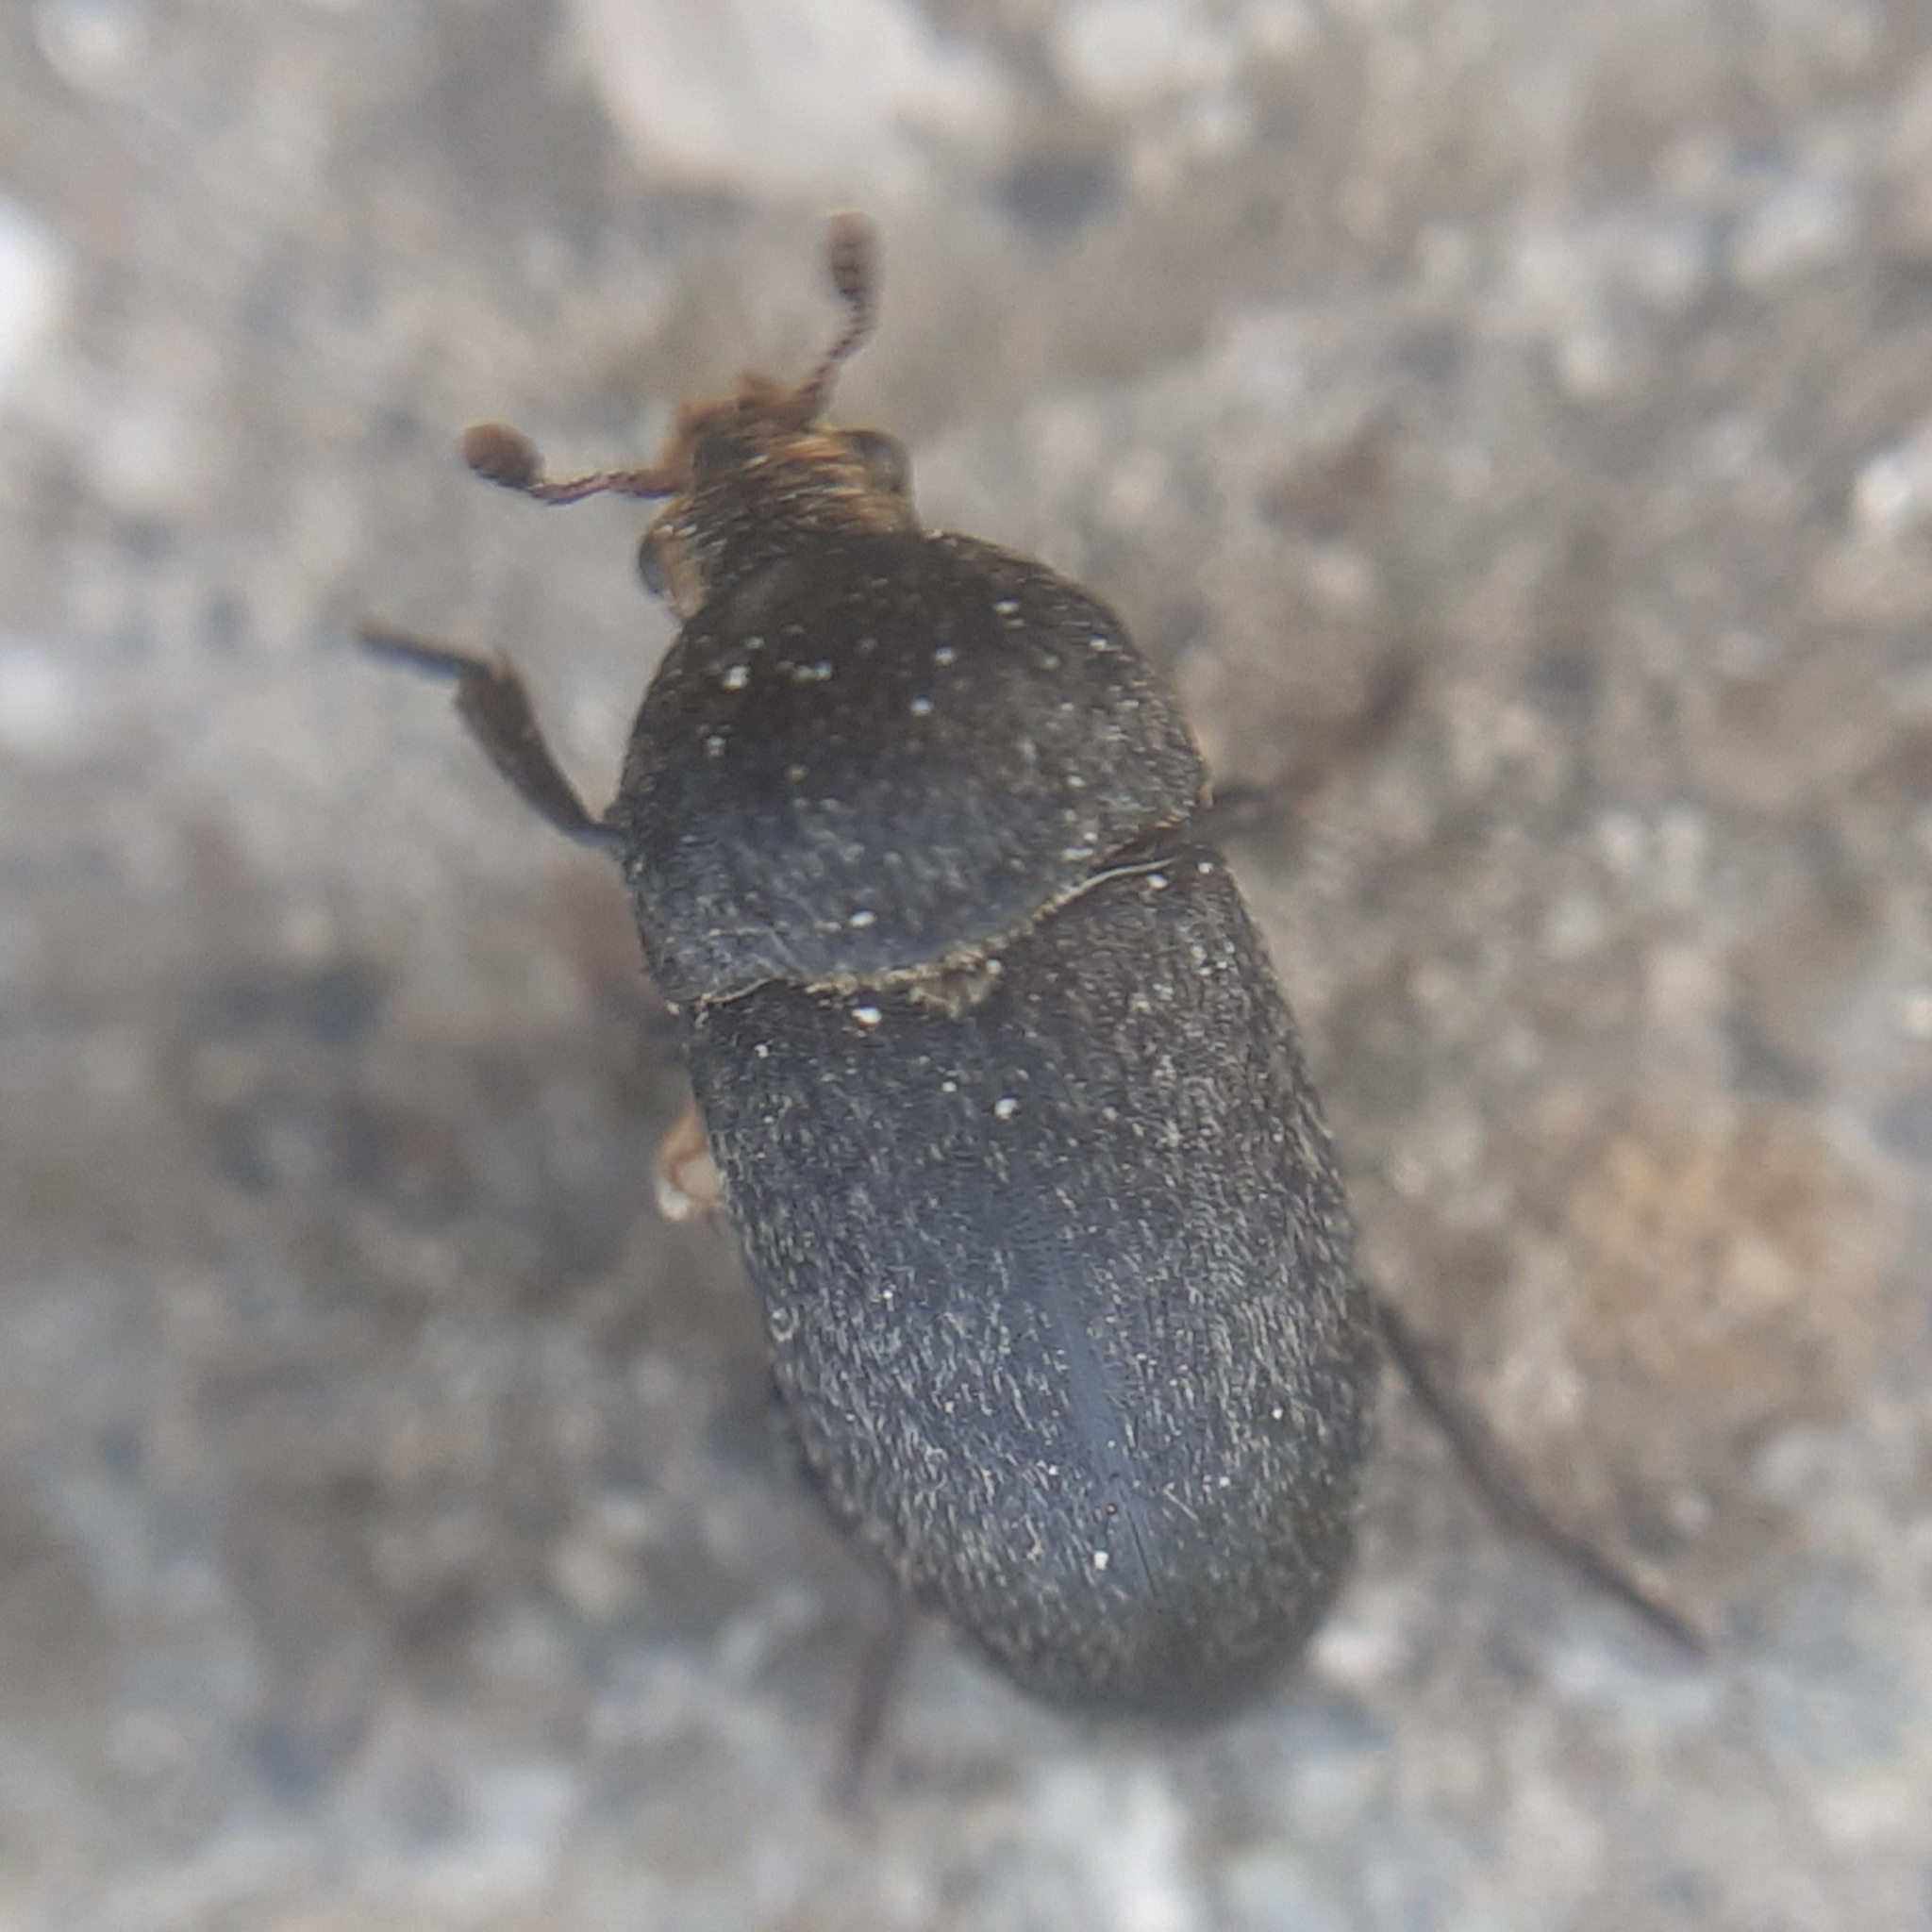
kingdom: Animalia
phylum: Arthropoda
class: Insecta
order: Coleoptera
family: Dermestidae
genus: Dermestes
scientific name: Dermestes laniarius
